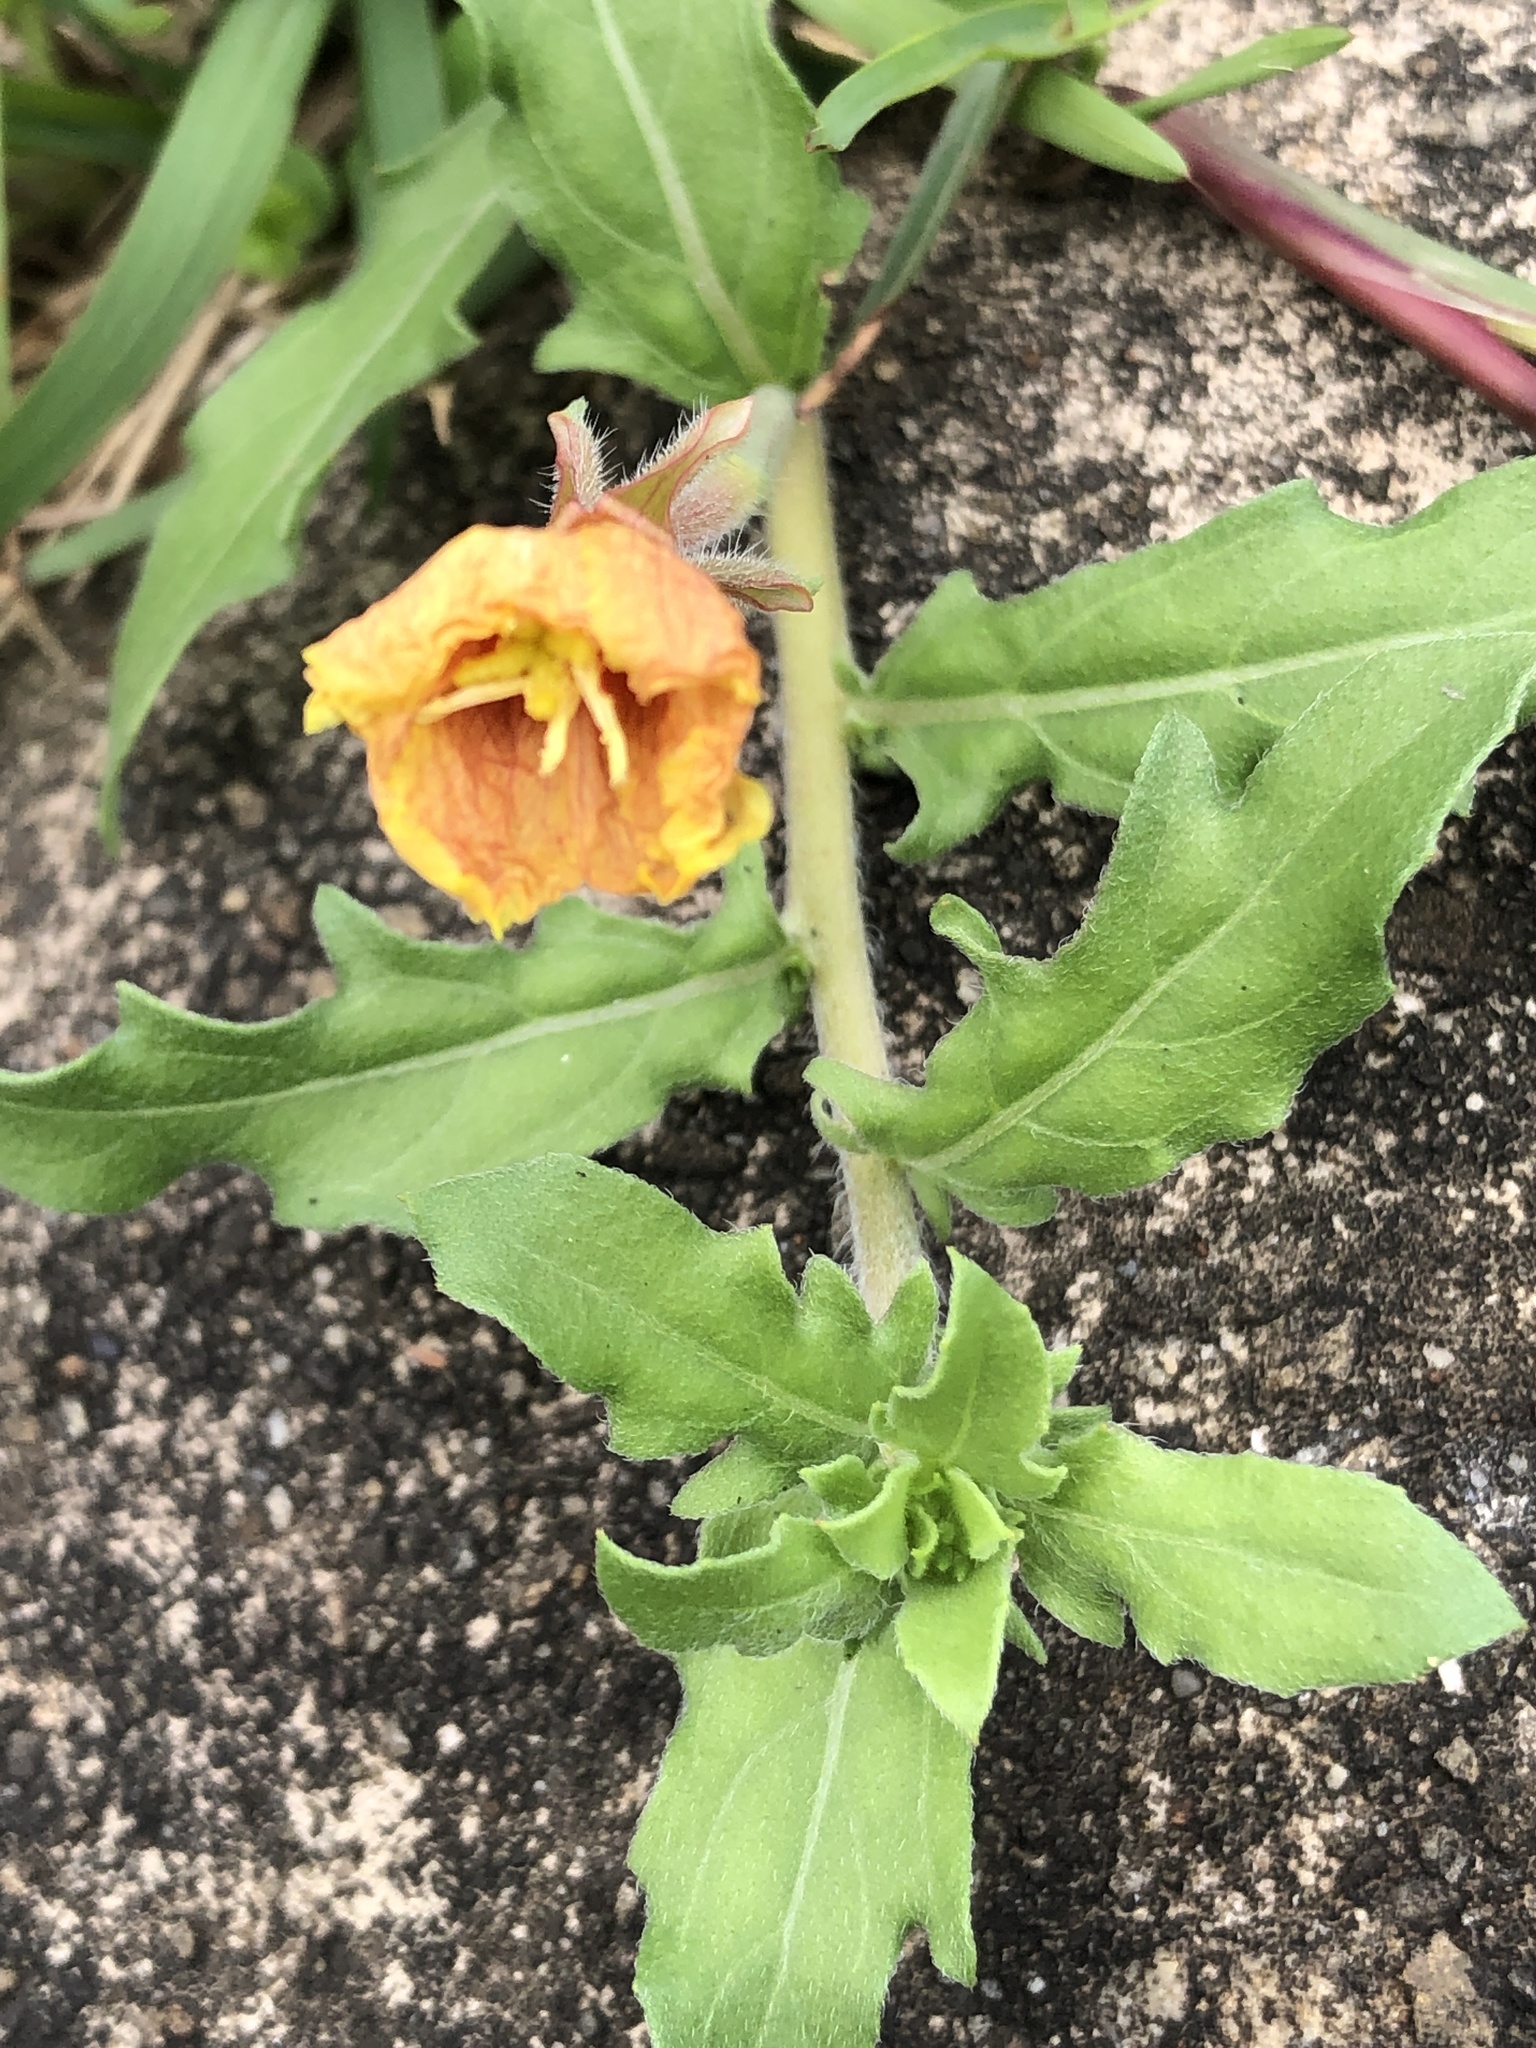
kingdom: Plantae
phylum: Tracheophyta
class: Magnoliopsida
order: Myrtales
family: Onagraceae
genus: Oenothera
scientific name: Oenothera laciniata
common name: Cut-leaved evening-primrose
